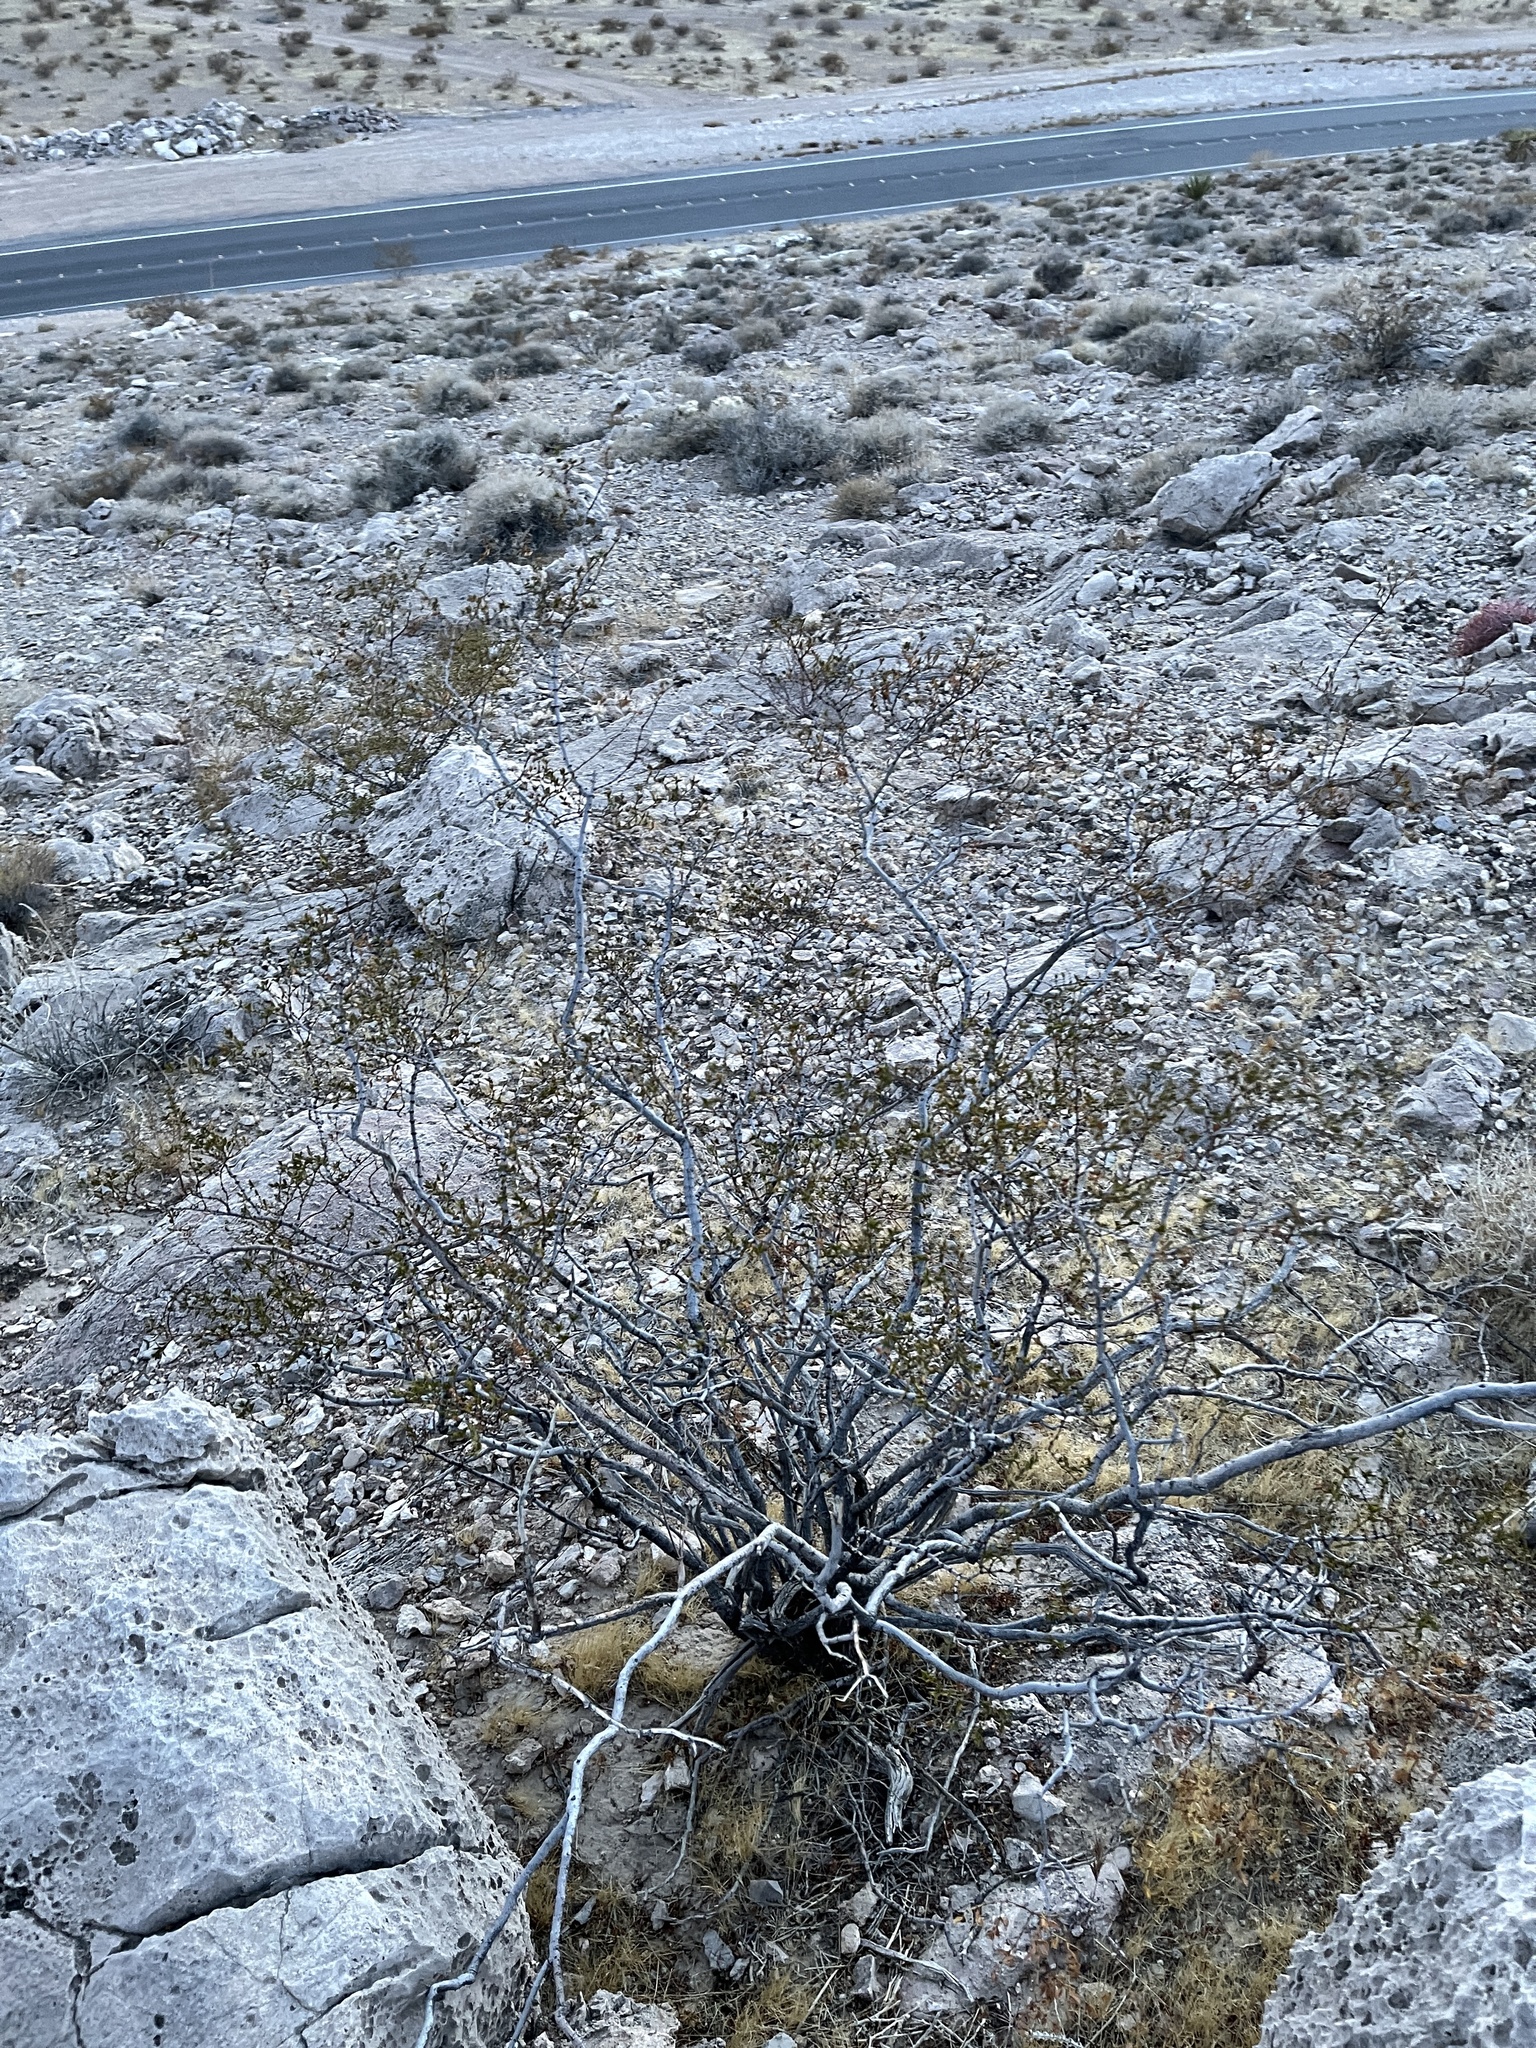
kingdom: Plantae
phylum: Tracheophyta
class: Magnoliopsida
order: Zygophyllales
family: Zygophyllaceae
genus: Larrea
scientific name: Larrea tridentata
